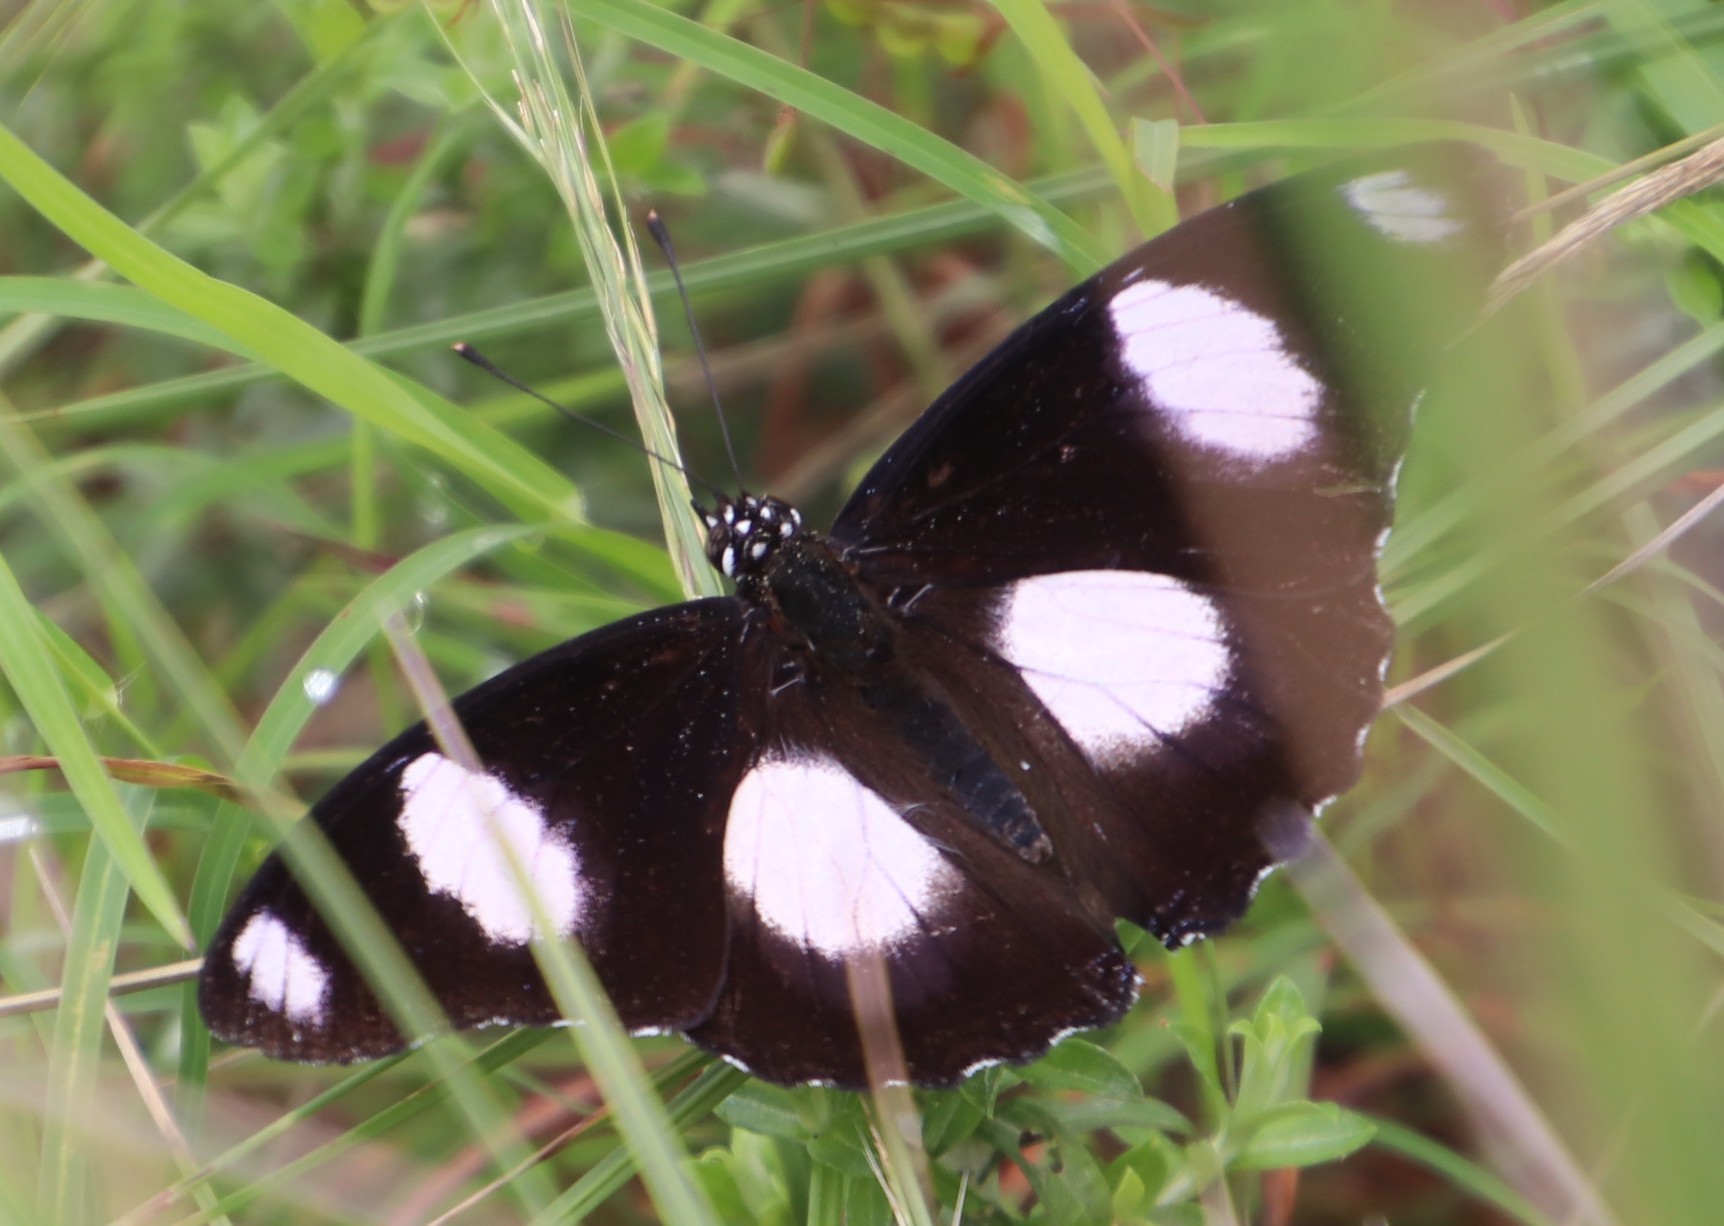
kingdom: Animalia
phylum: Arthropoda
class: Insecta
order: Lepidoptera
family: Nymphalidae
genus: Hypolimnas
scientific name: Hypolimnas misippus
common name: False plain tiger
